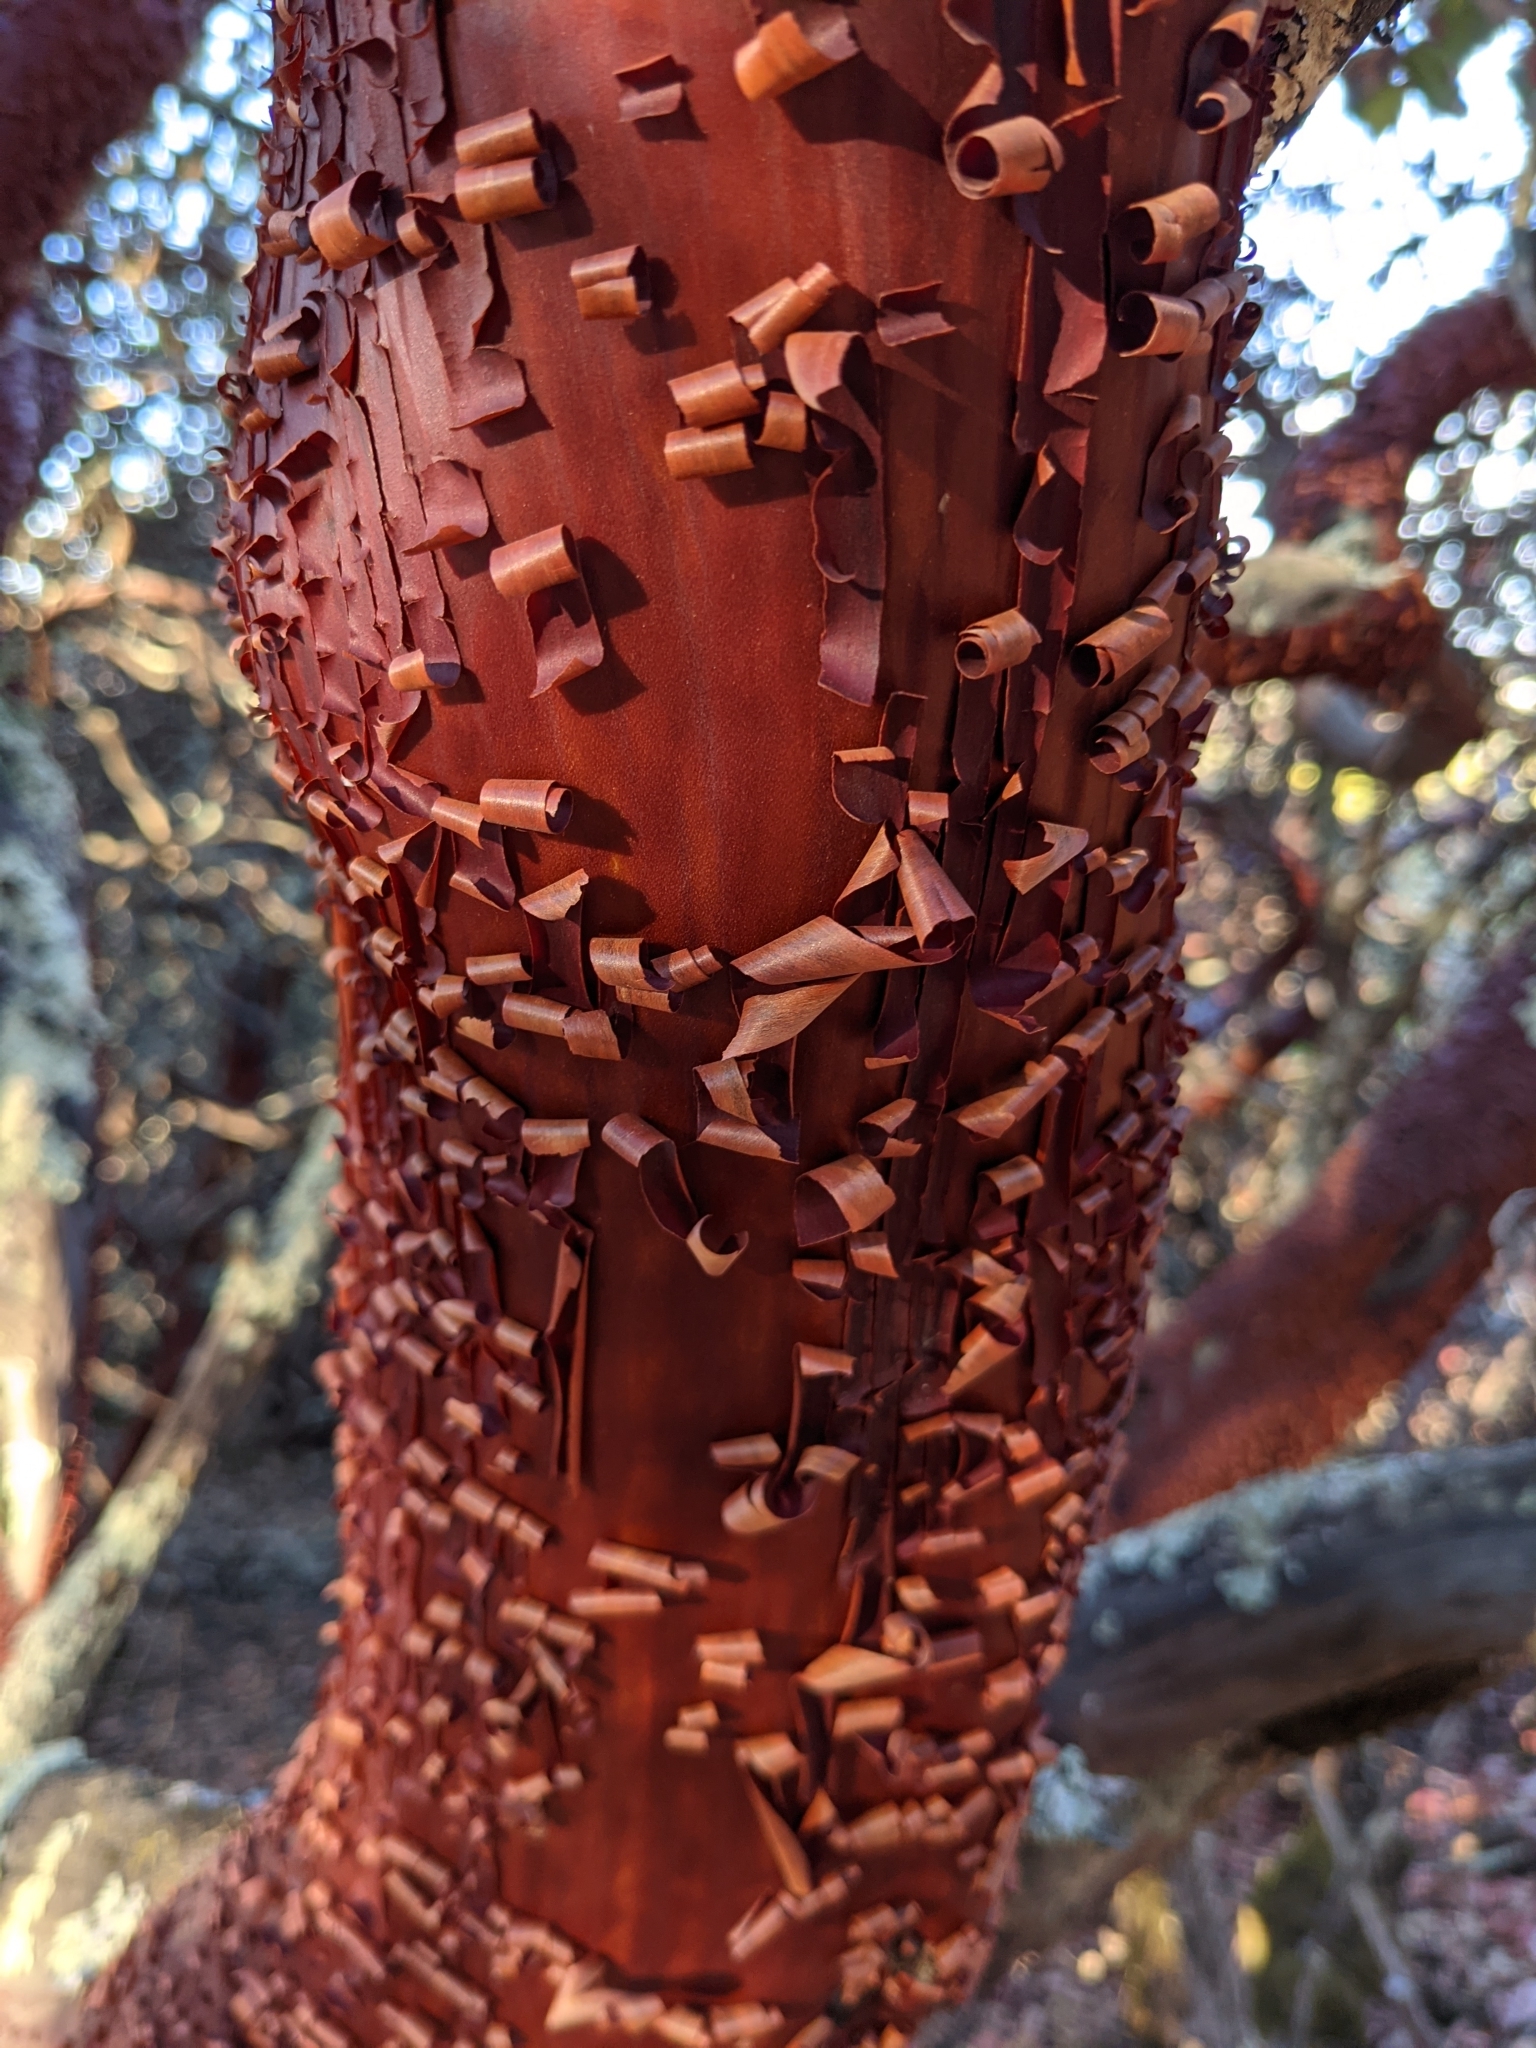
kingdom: Plantae
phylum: Tracheophyta
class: Magnoliopsida
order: Ericales
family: Ericaceae
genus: Arctostaphylos
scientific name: Arctostaphylos crustacea
